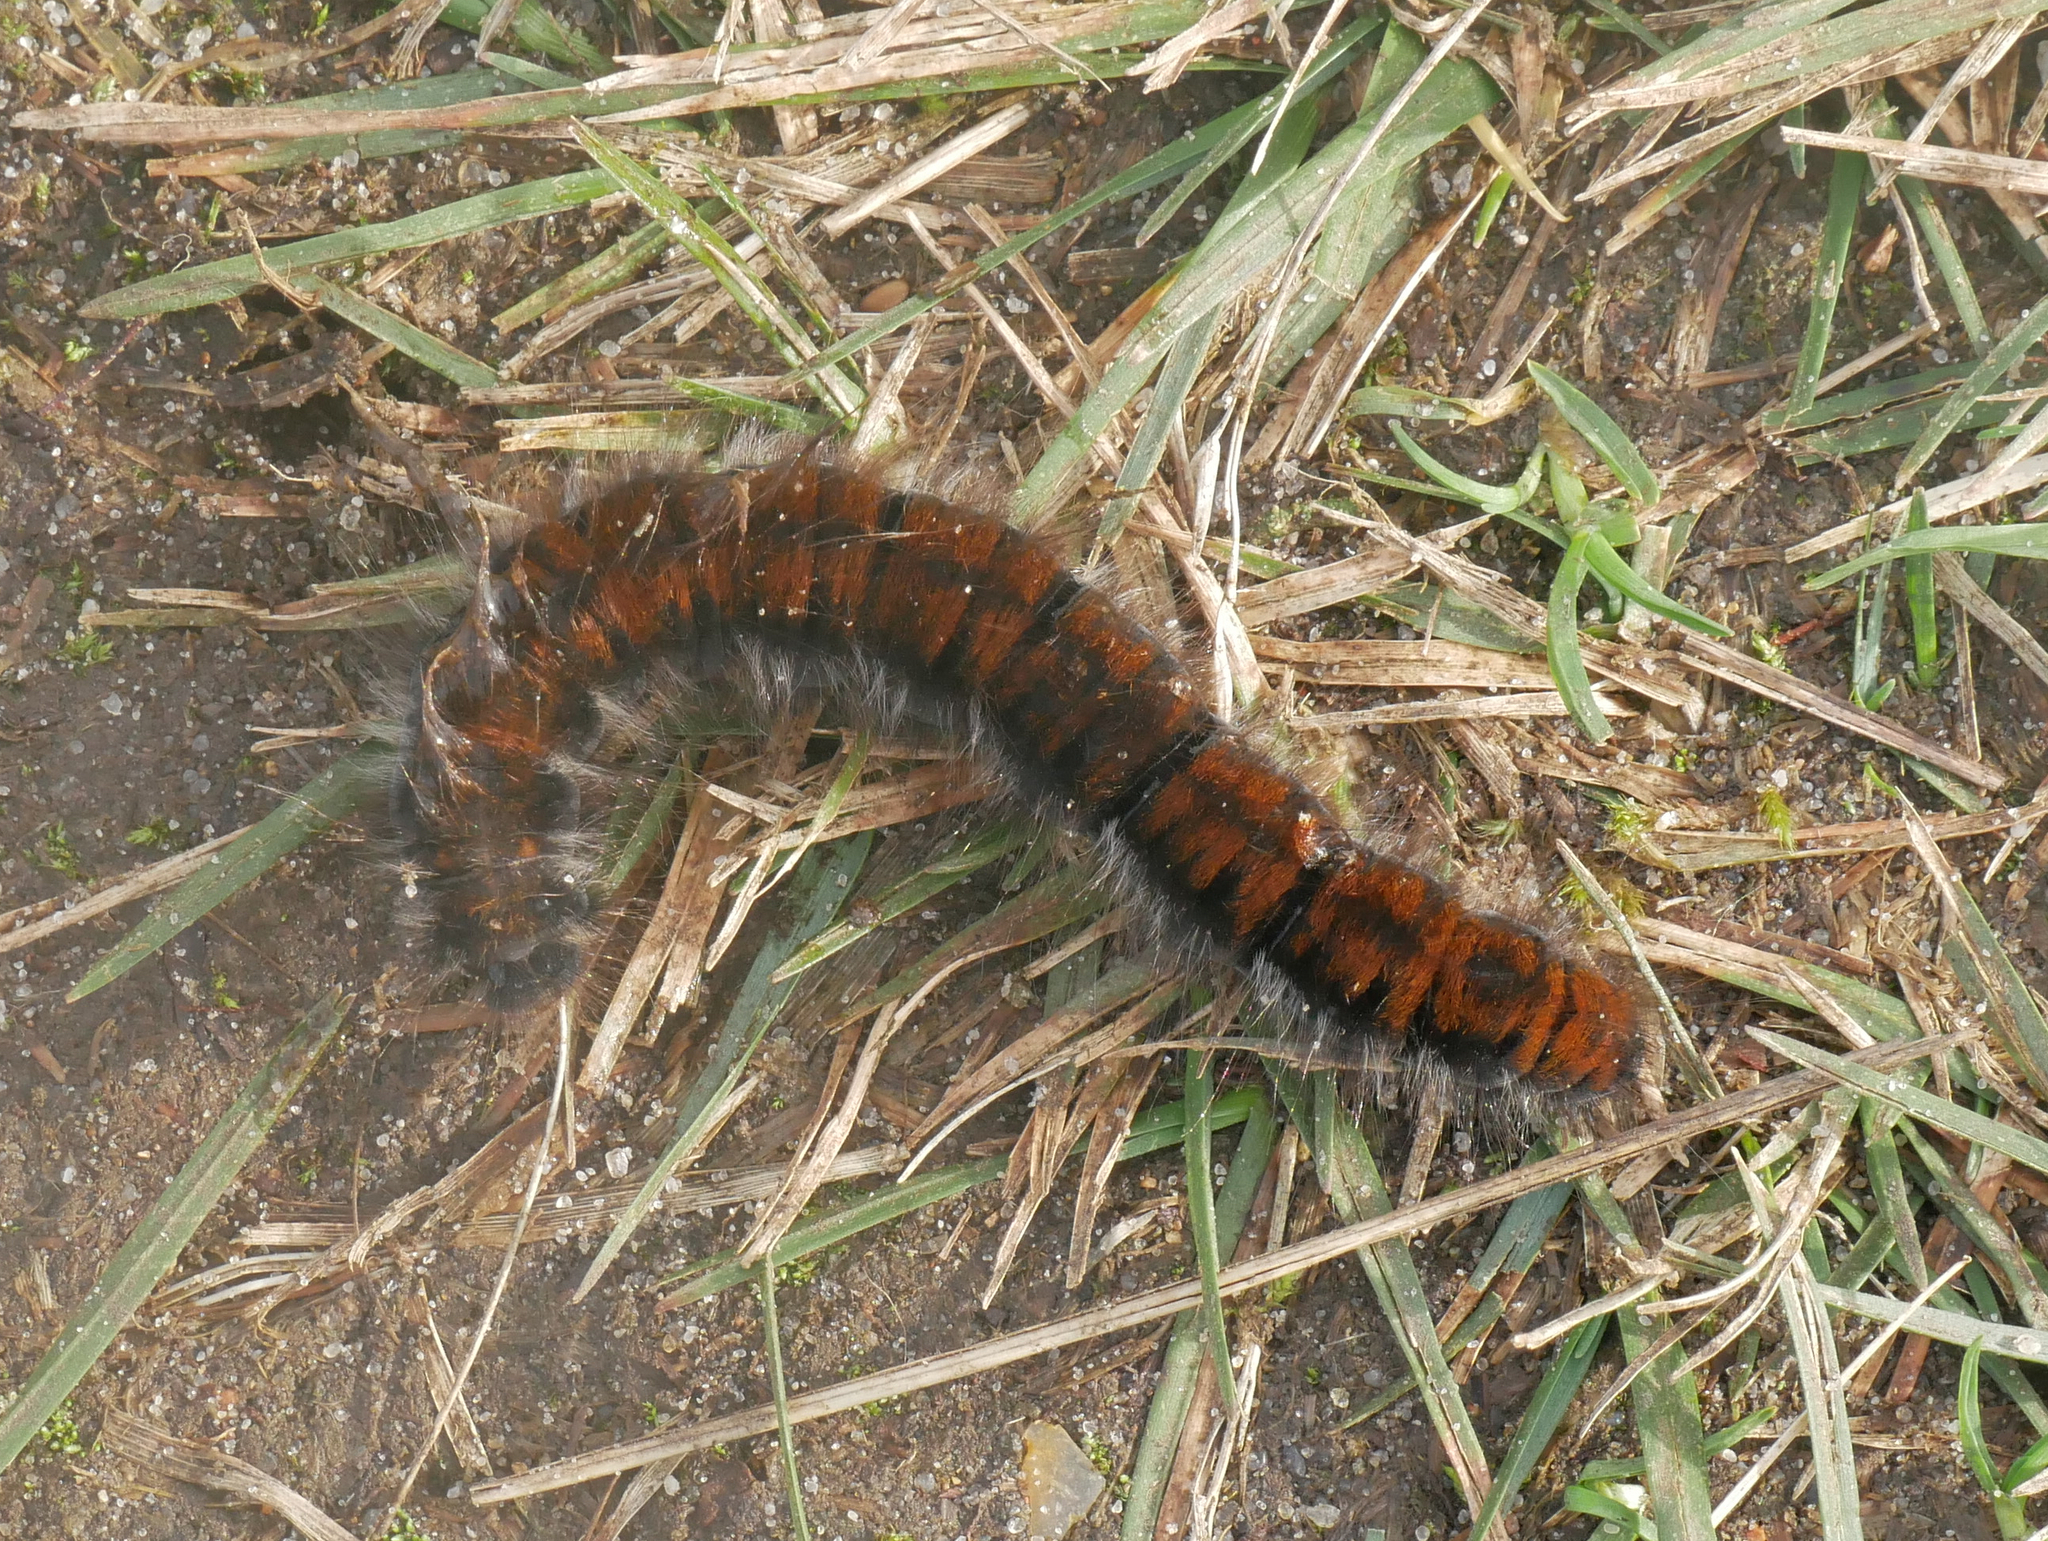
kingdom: Animalia
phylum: Arthropoda
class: Insecta
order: Lepidoptera
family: Lasiocampidae
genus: Macrothylacia
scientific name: Macrothylacia rubi
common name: Fox moth
